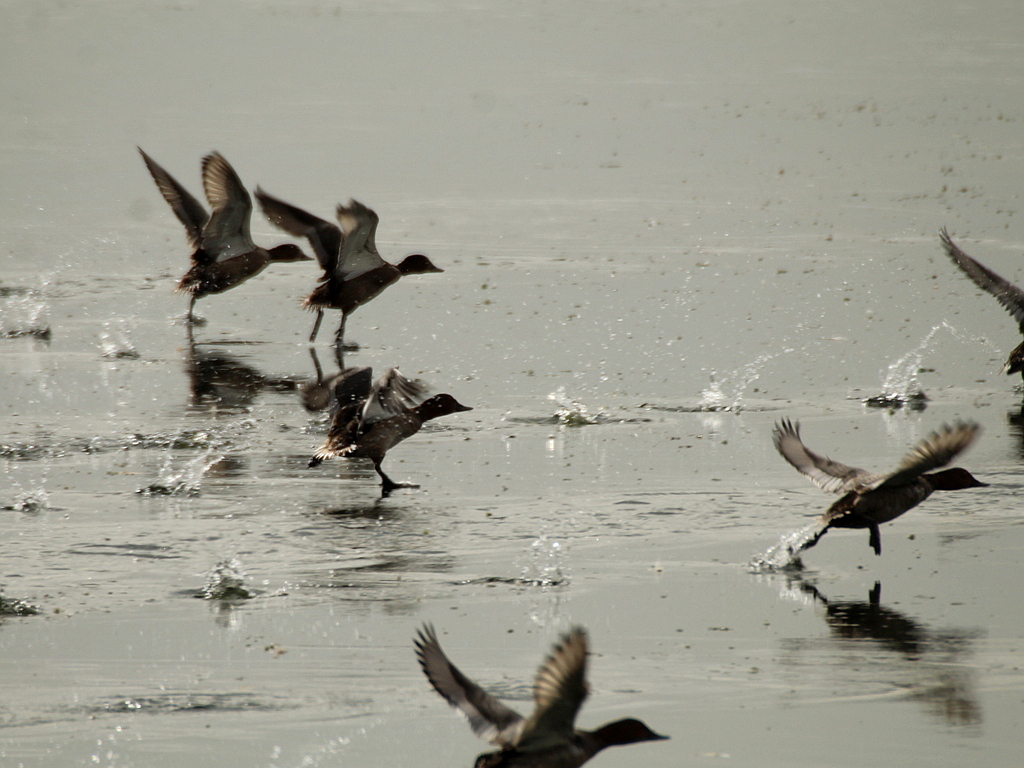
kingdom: Animalia
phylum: Chordata
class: Aves
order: Anseriformes
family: Anatidae
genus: Aythya
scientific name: Aythya ferina
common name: Common pochard
